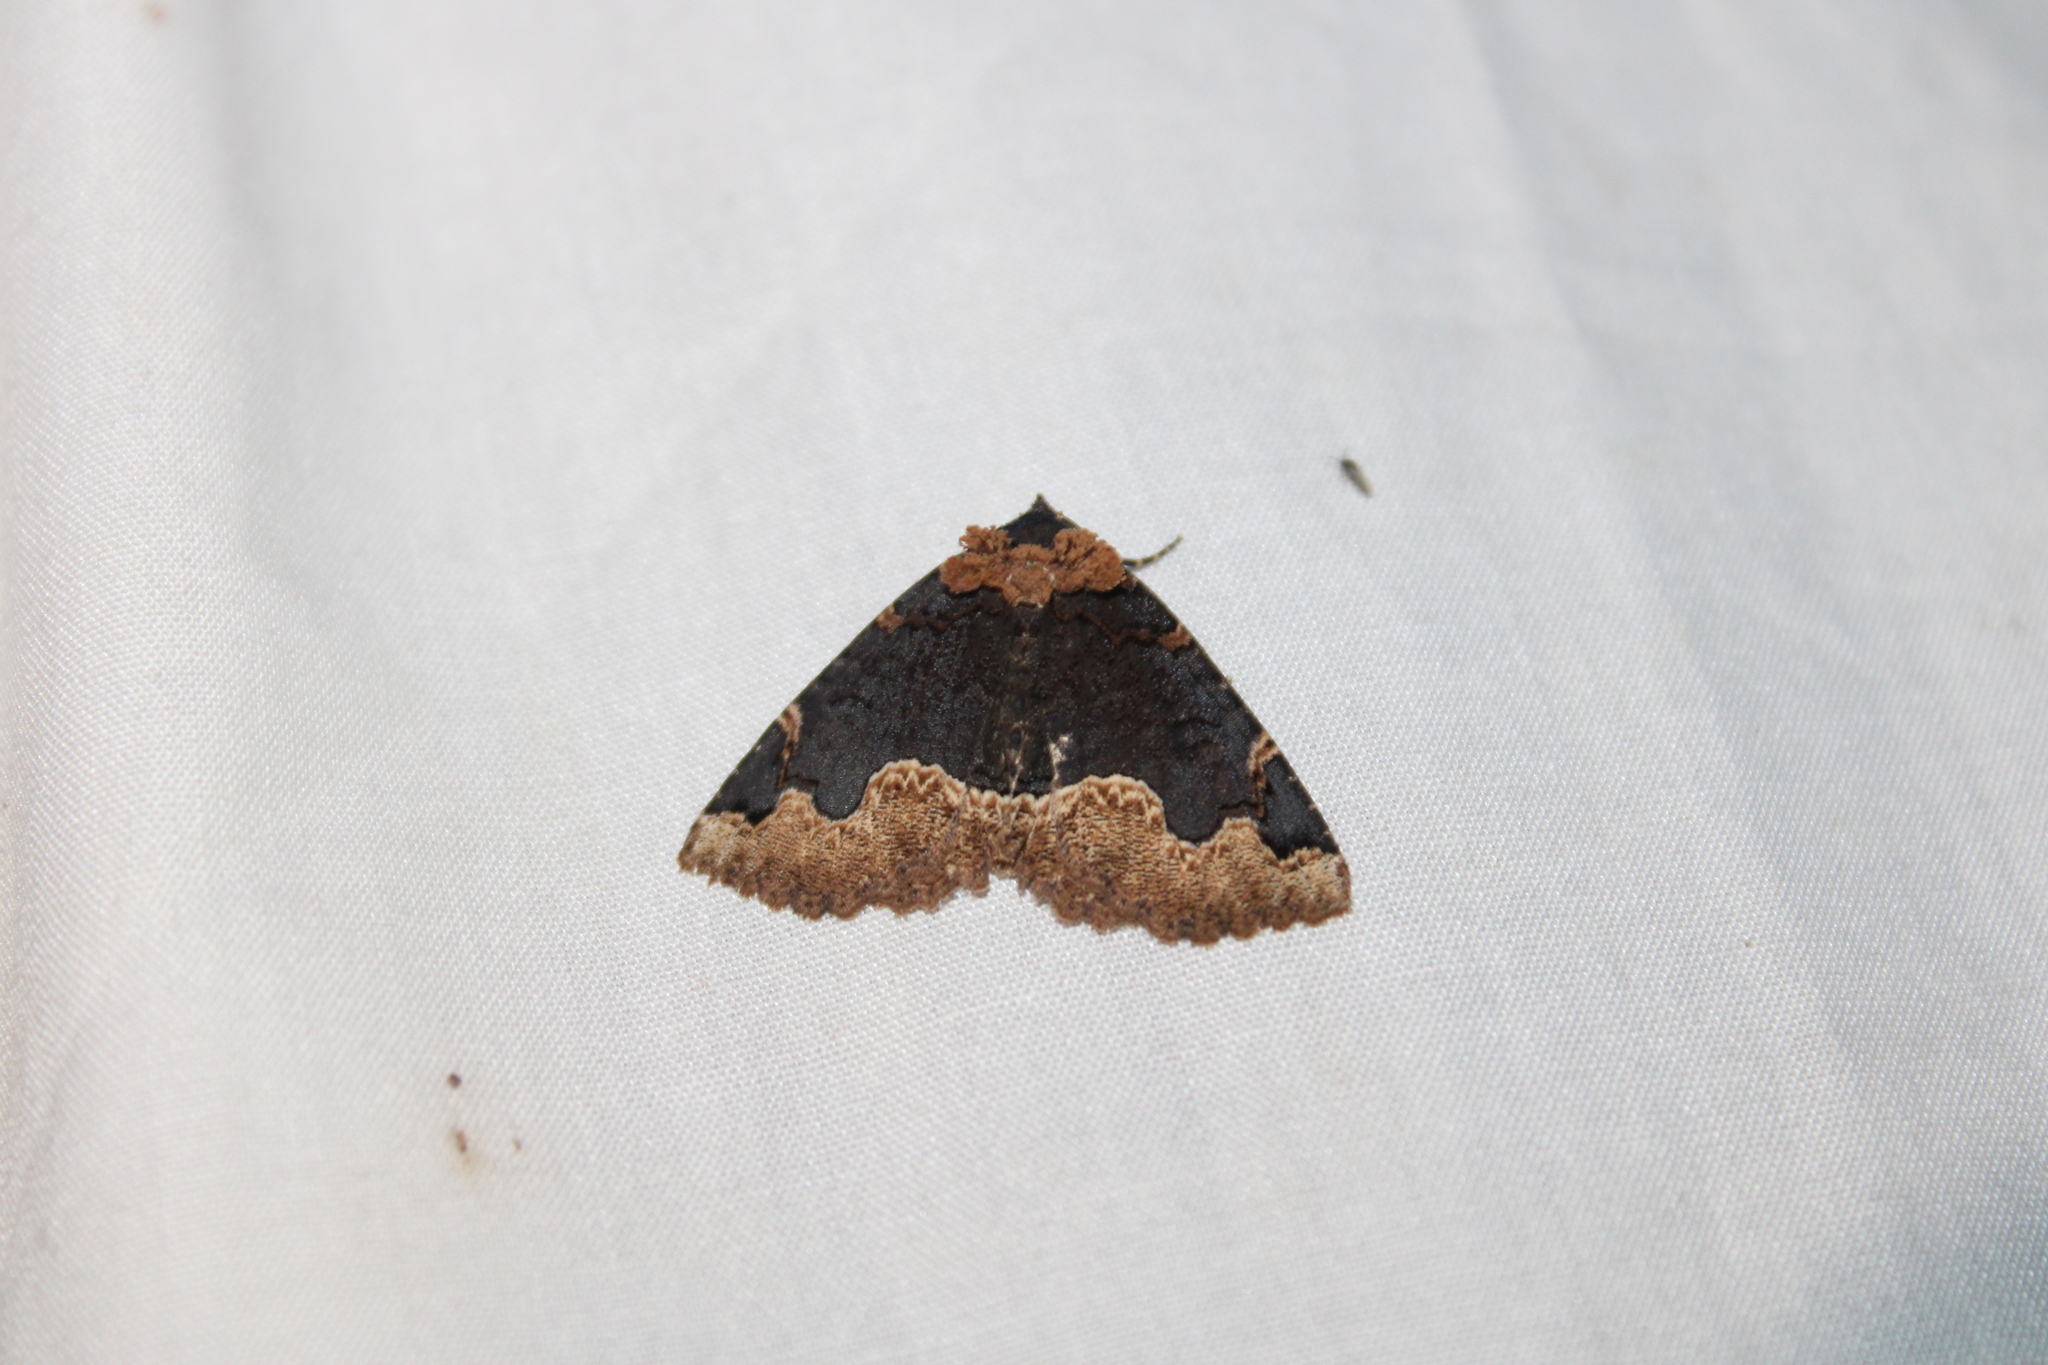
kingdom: Animalia
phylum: Arthropoda
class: Insecta
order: Lepidoptera
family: Erebidae
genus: Zale
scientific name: Zale horrida
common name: Horrid zale moth
